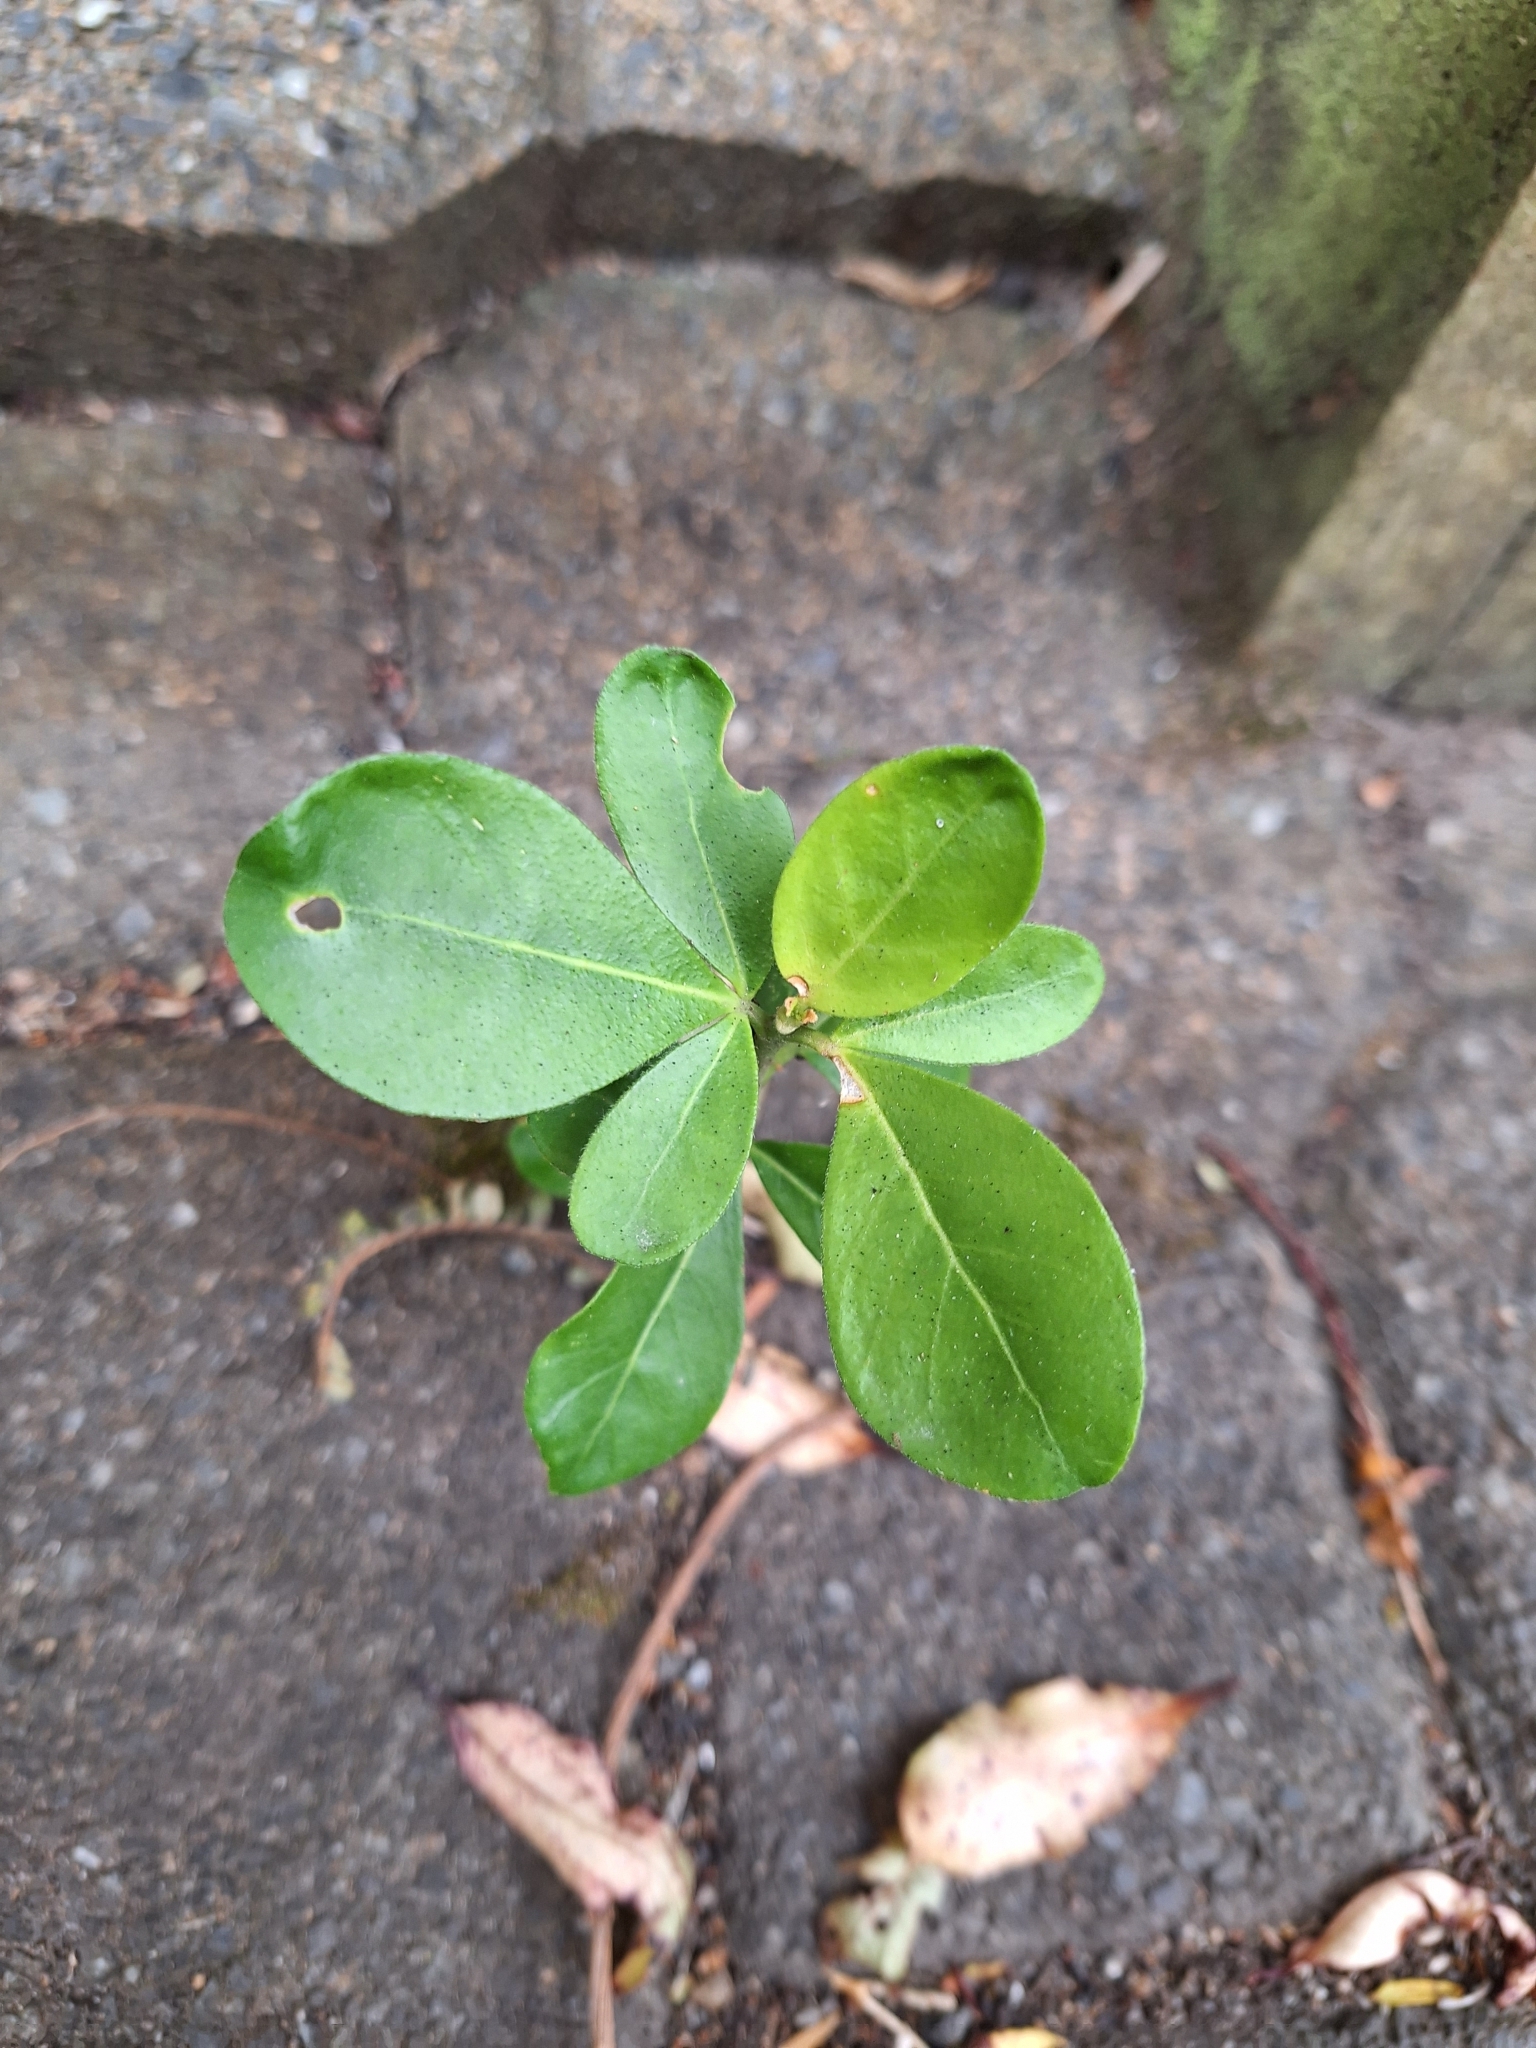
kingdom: Plantae
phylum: Tracheophyta
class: Magnoliopsida
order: Sapindales
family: Rutaceae
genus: Choisya
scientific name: Choisya ternata
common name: Mexican orange
